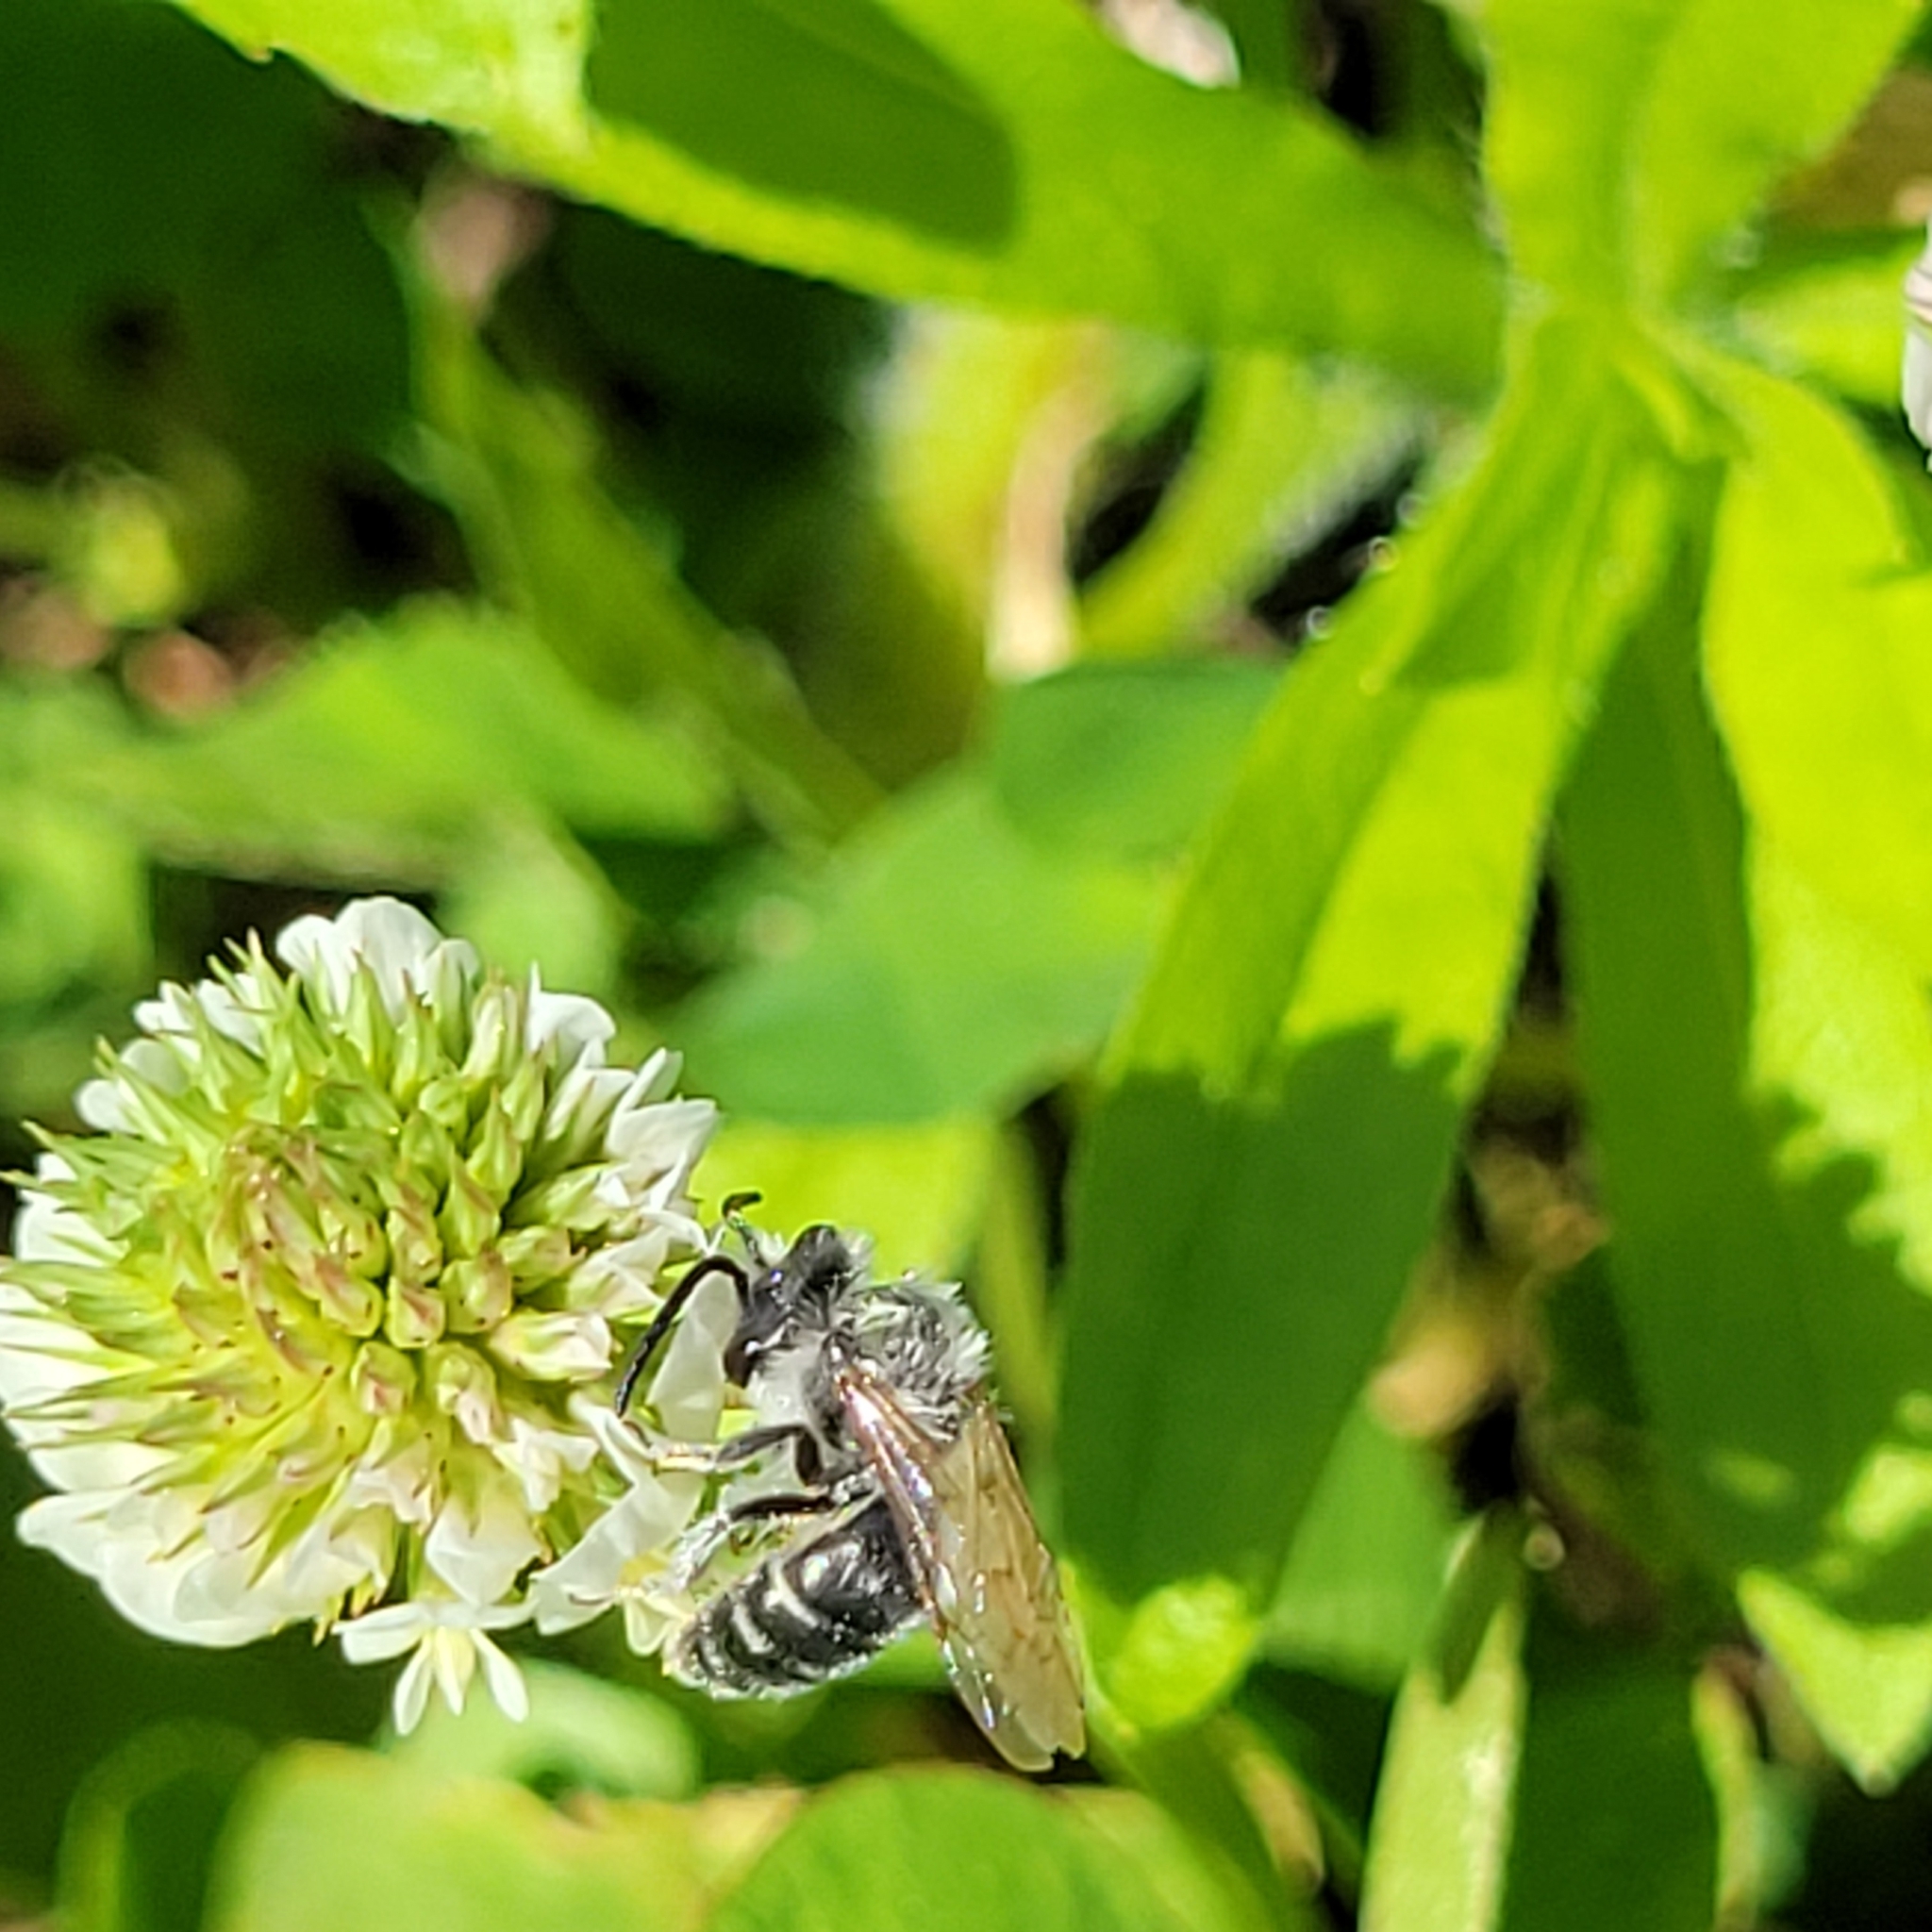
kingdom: Animalia
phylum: Arthropoda
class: Insecta
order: Hymenoptera
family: Andrenidae
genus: Andrena
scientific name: Andrena wilkella
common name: Wilke's mining bee
